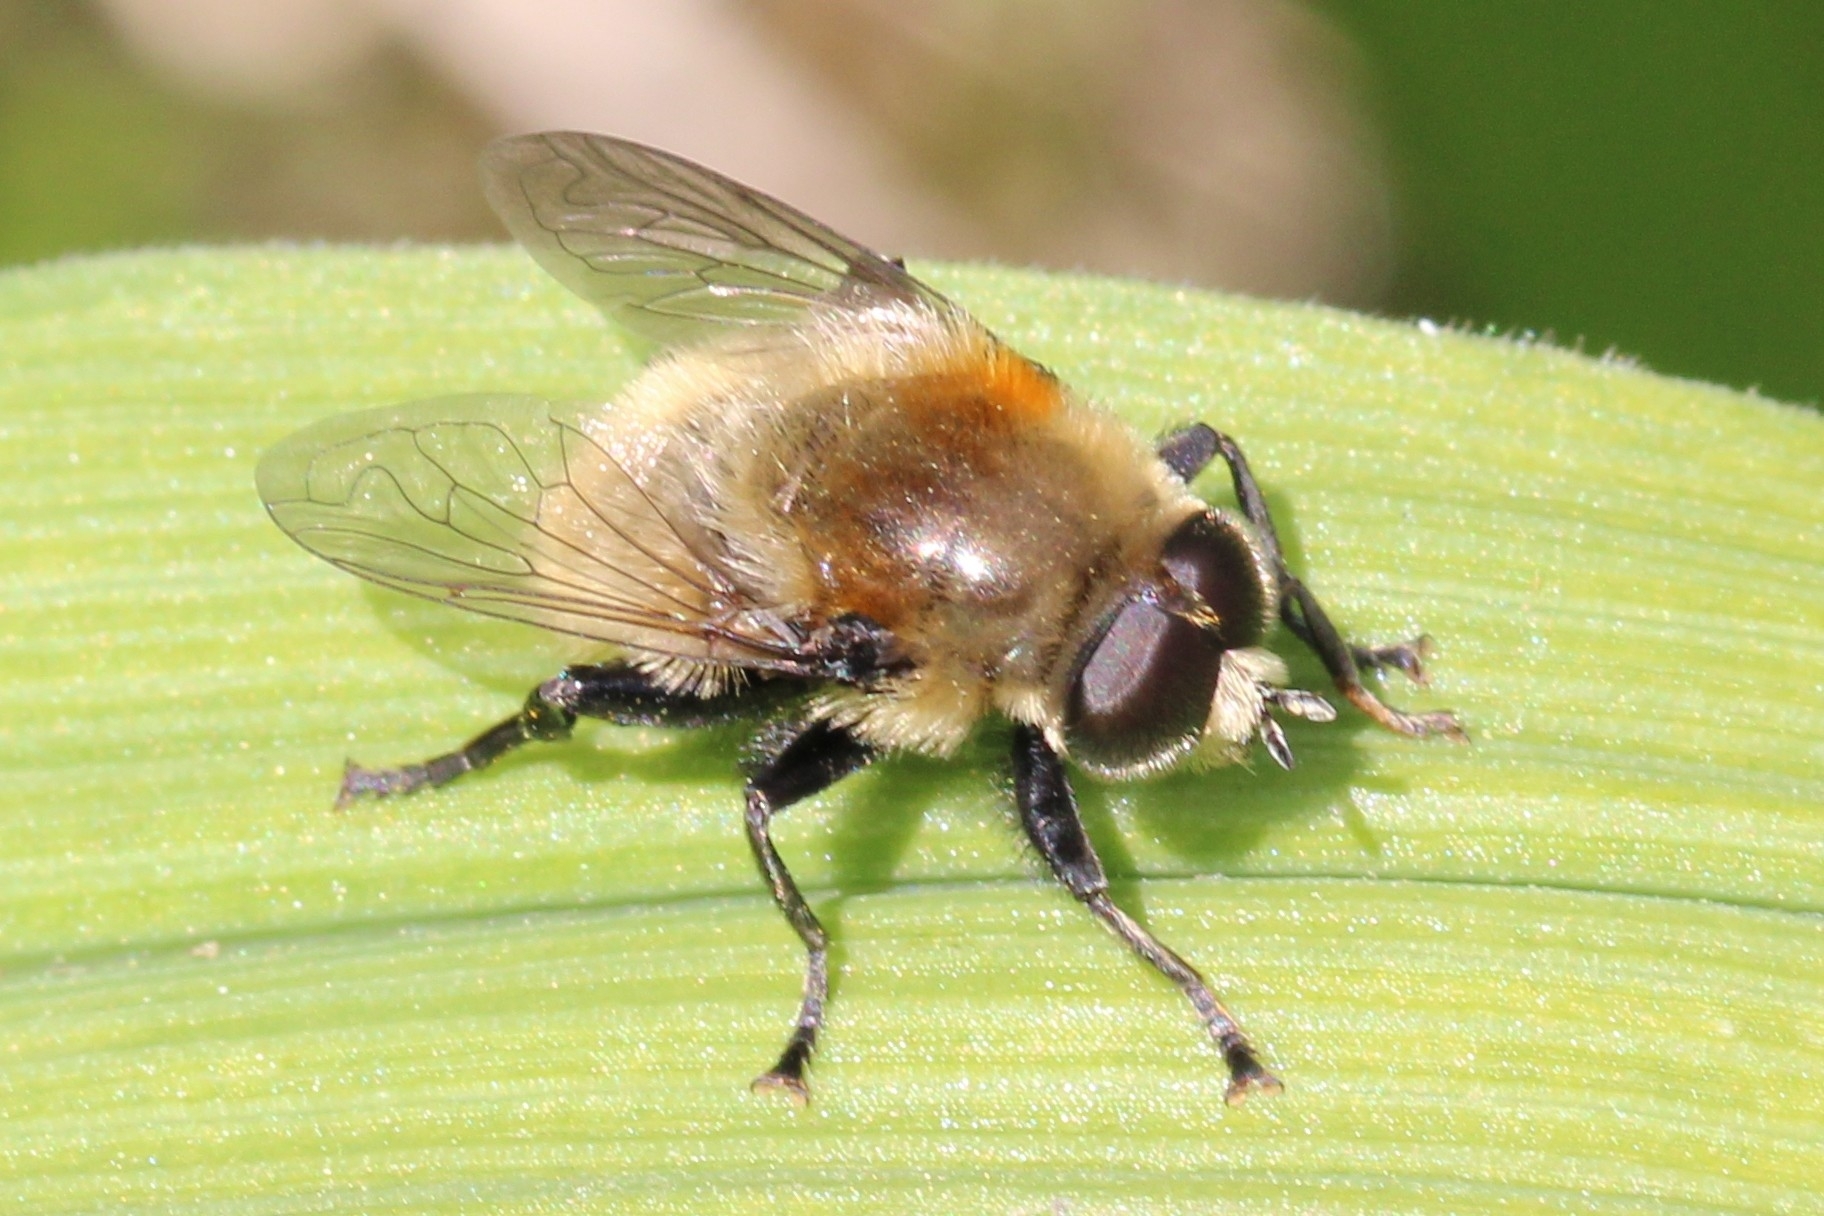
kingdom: Animalia
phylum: Arthropoda
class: Insecta
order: Diptera
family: Syrphidae
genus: Merodon
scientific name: Merodon equestris
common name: Greater bulb-fly
